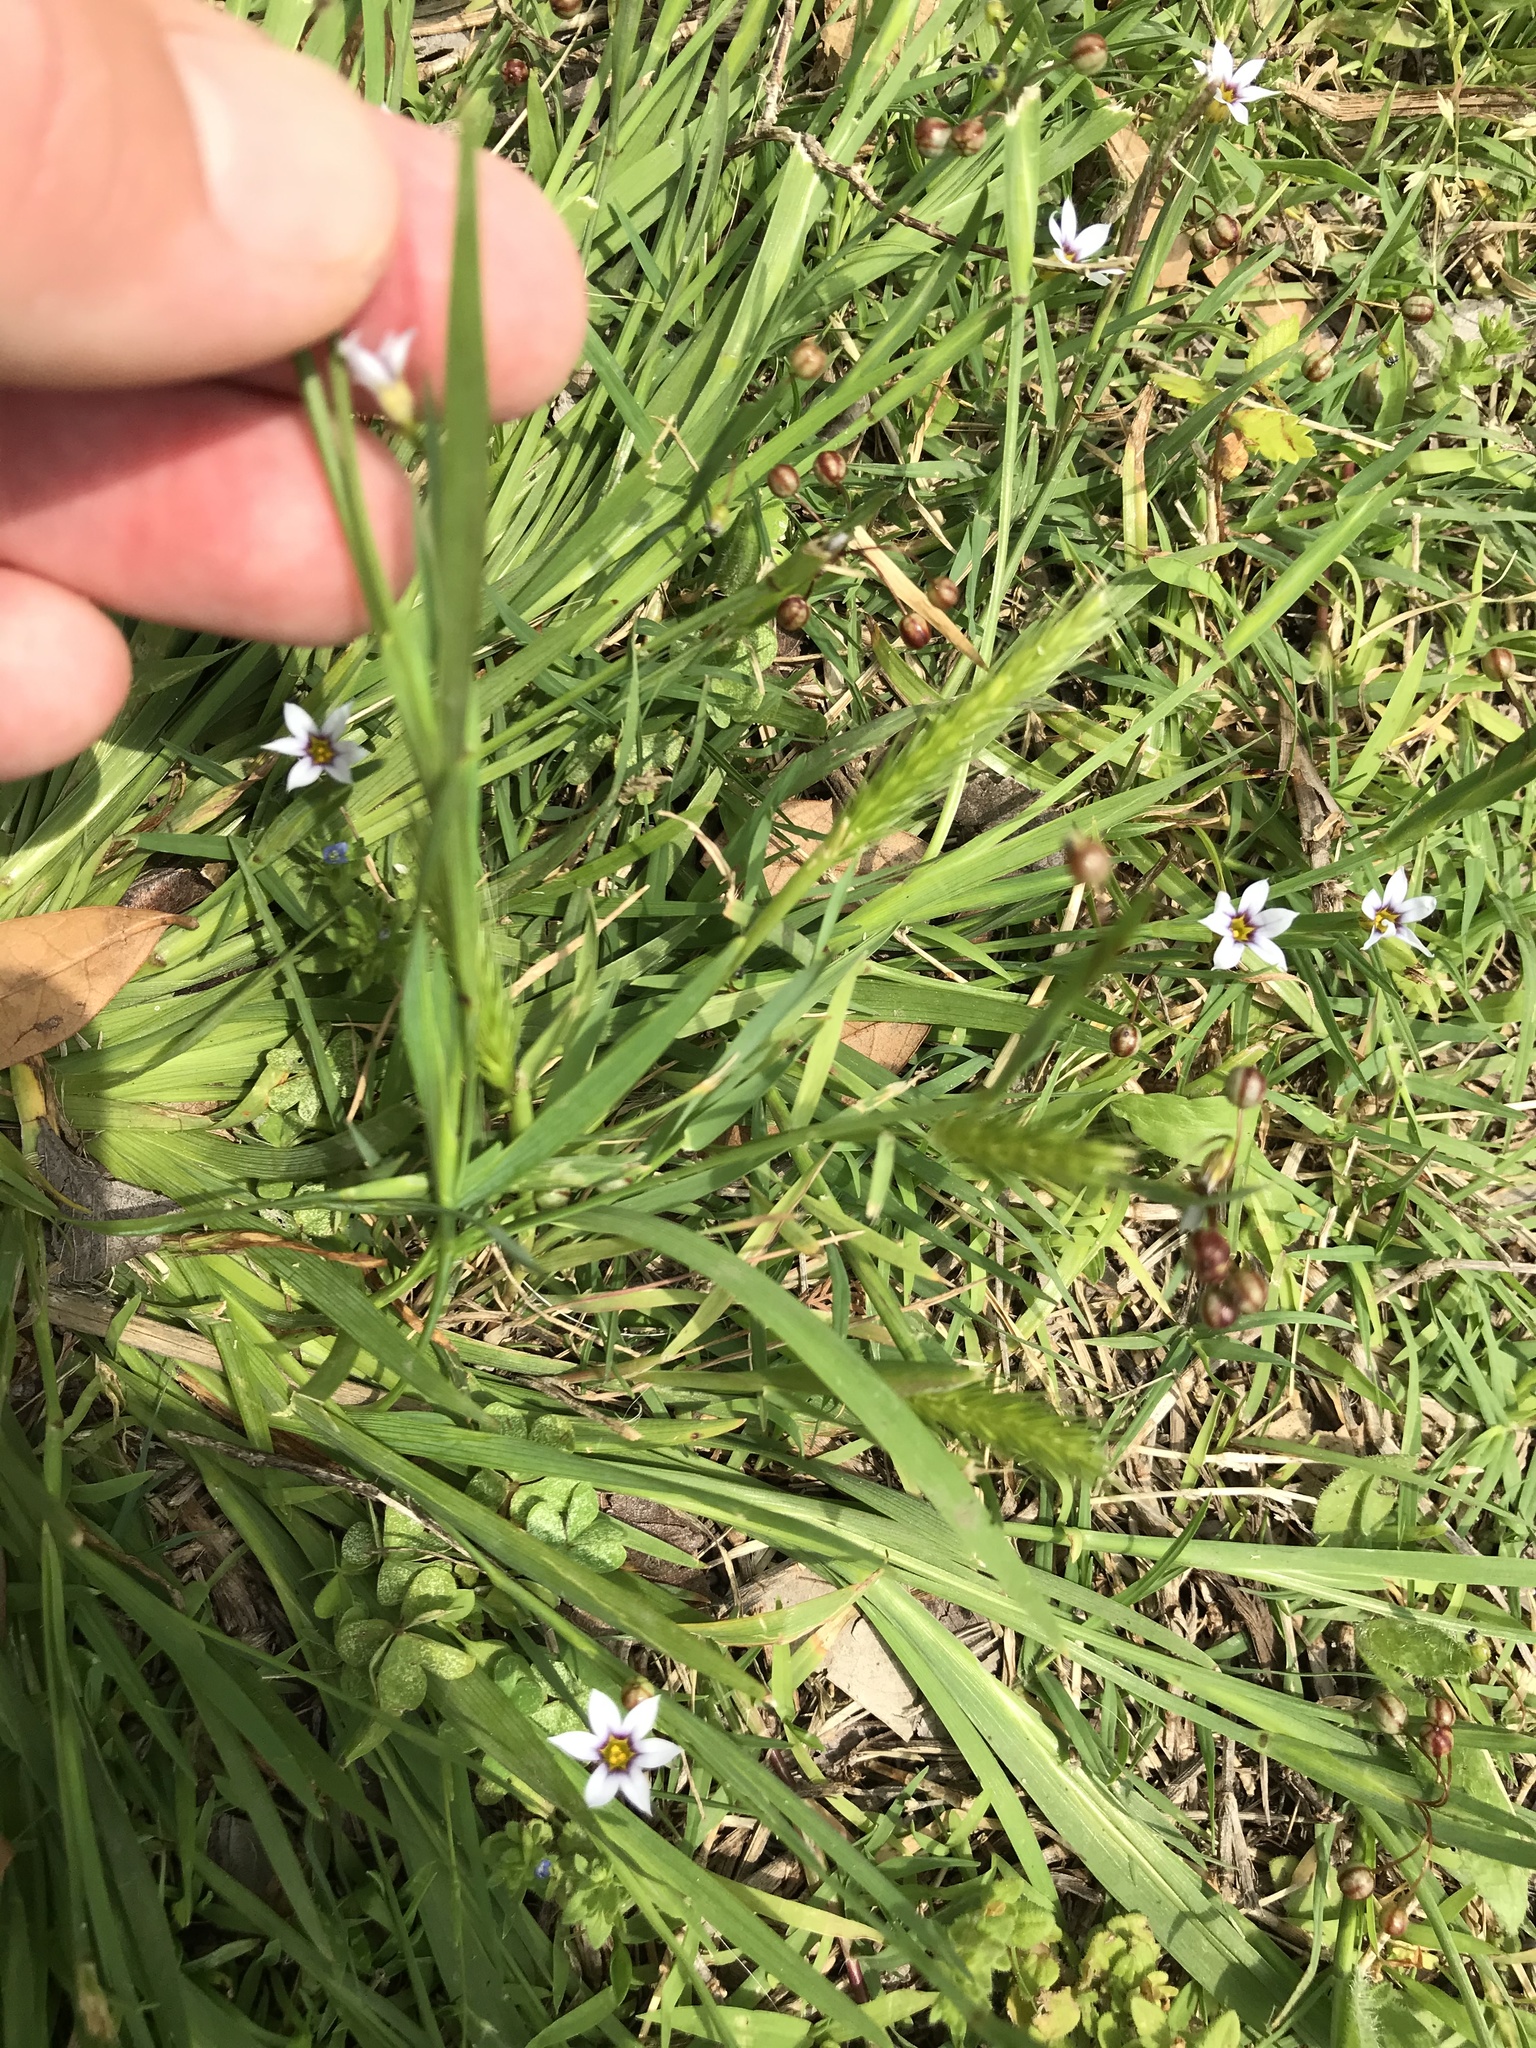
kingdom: Plantae
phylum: Tracheophyta
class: Liliopsida
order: Asparagales
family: Iridaceae
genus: Sisyrinchium
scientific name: Sisyrinchium micranthum
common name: Bermuda pigroot
